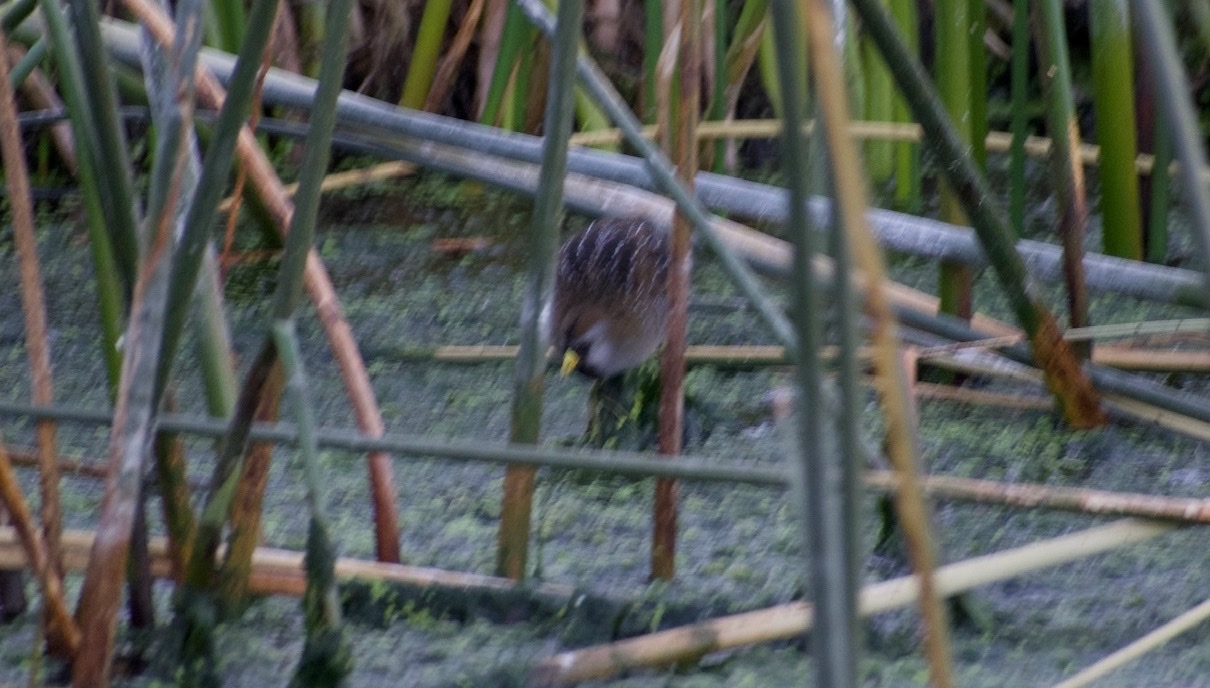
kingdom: Animalia
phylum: Chordata
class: Aves
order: Gruiformes
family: Rallidae
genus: Porzana
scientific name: Porzana carolina
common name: Sora
